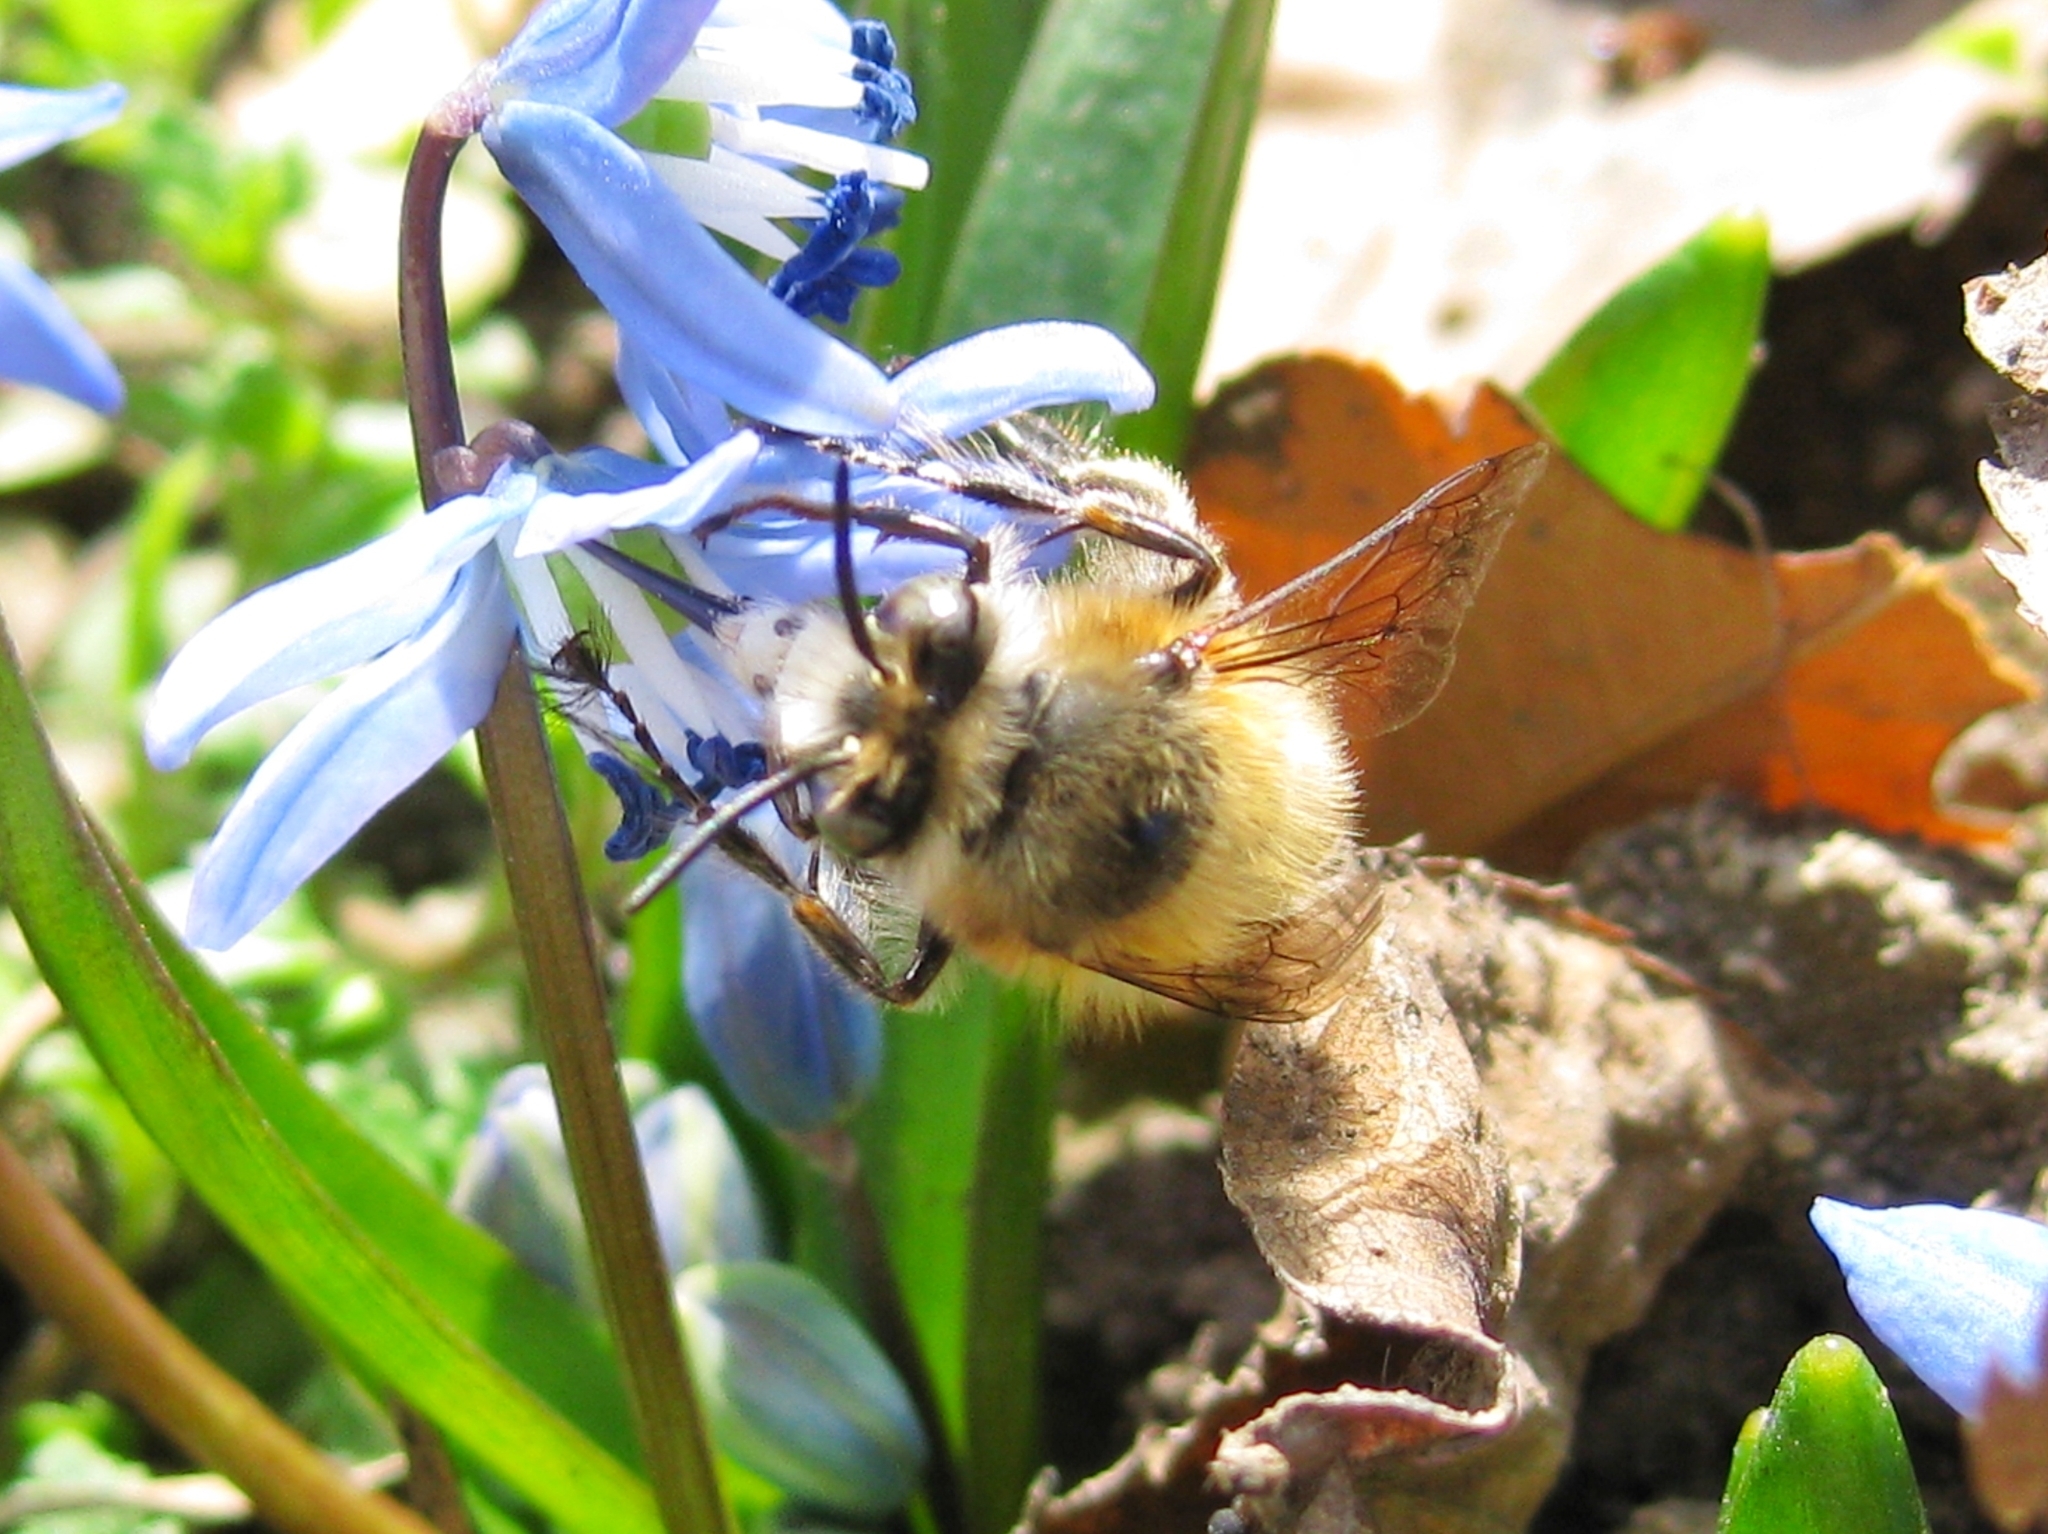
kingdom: Animalia
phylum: Arthropoda
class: Insecta
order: Hymenoptera
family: Apidae
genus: Anthophora
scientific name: Anthophora plumipes
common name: Hairy-footed flower bee
